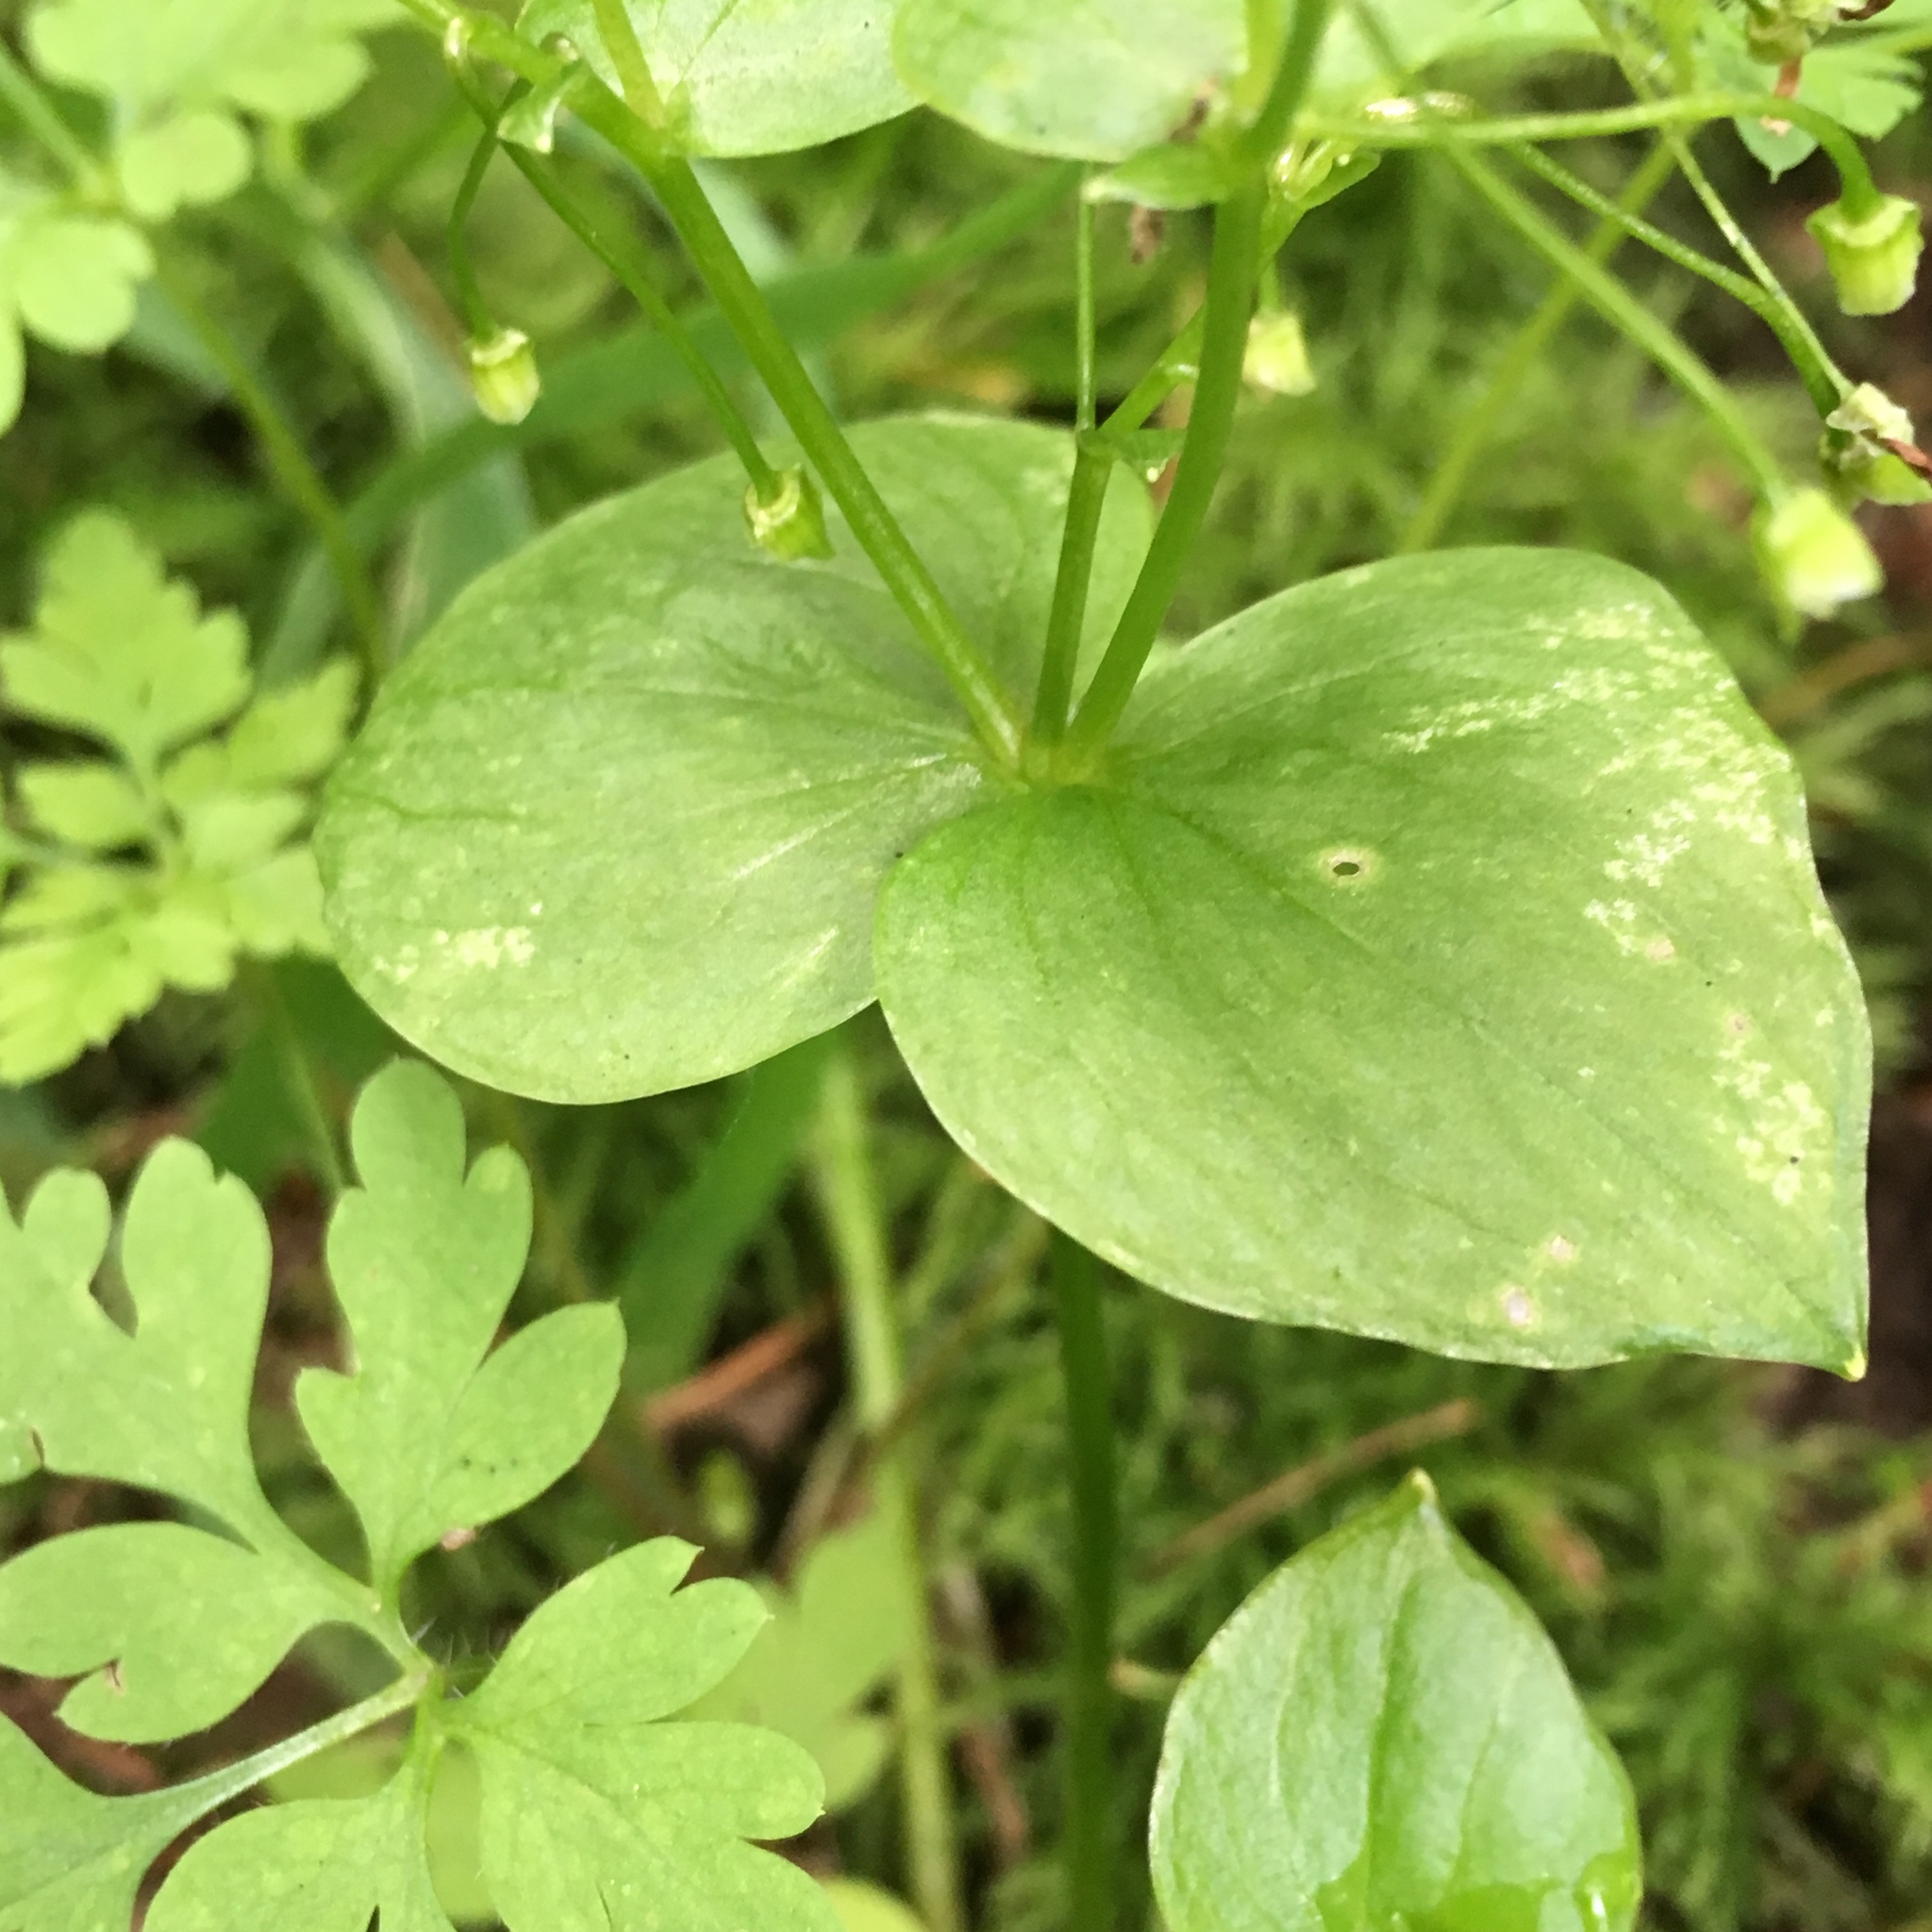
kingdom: Plantae
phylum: Tracheophyta
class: Magnoliopsida
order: Caryophyllales
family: Montiaceae
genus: Claytonia
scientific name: Claytonia sibirica
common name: Pink purslane
